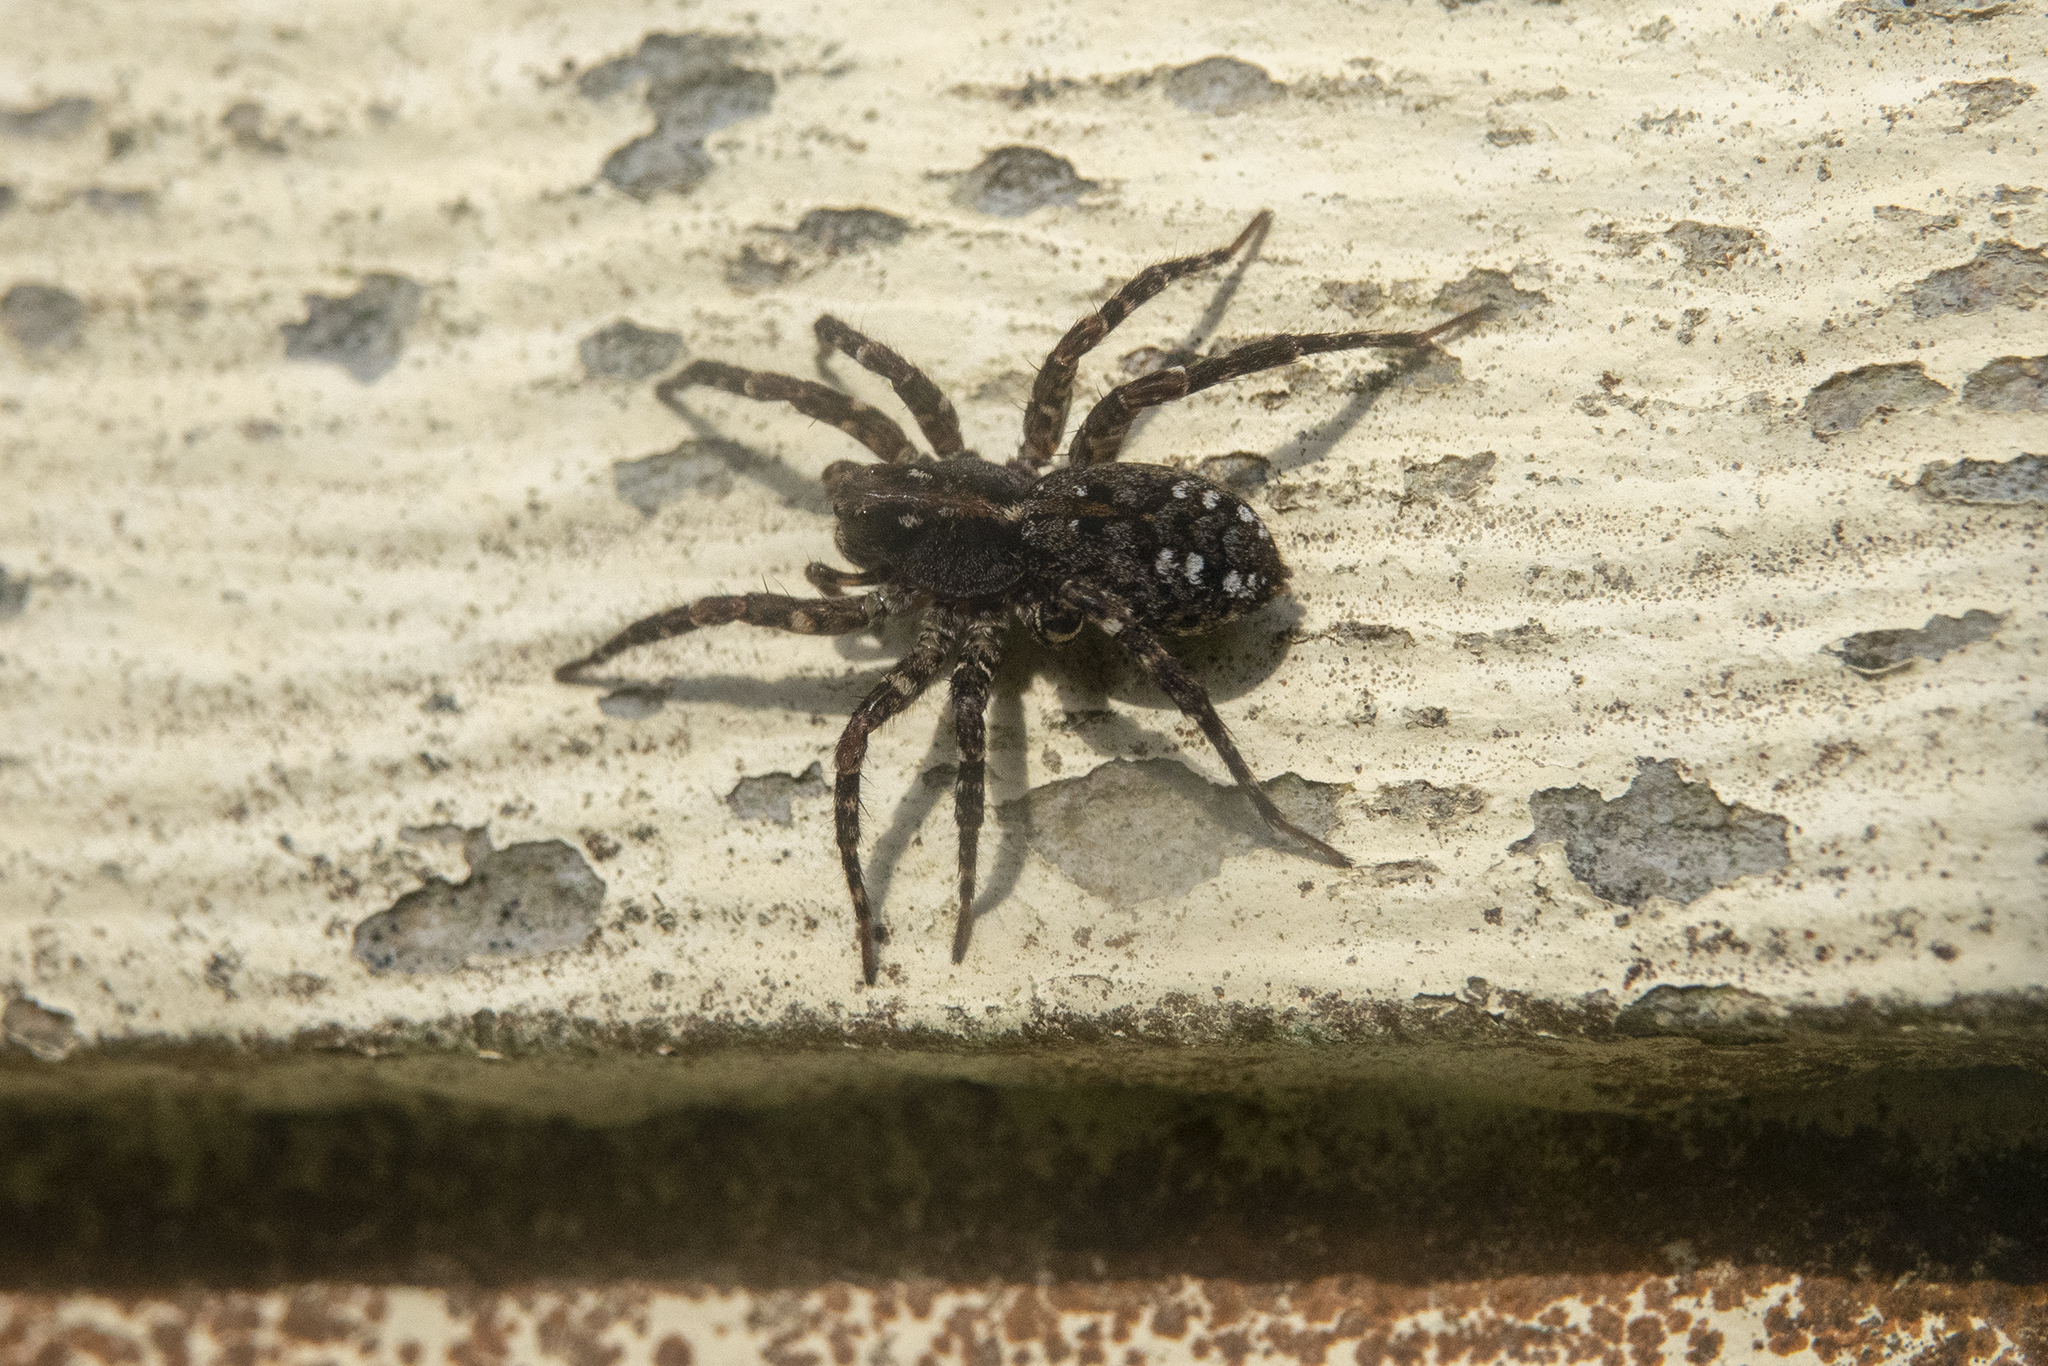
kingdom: Animalia
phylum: Arthropoda
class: Arachnida
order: Araneae
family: Lycosidae
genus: Anoteropsis
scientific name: Anoteropsis hilaris
